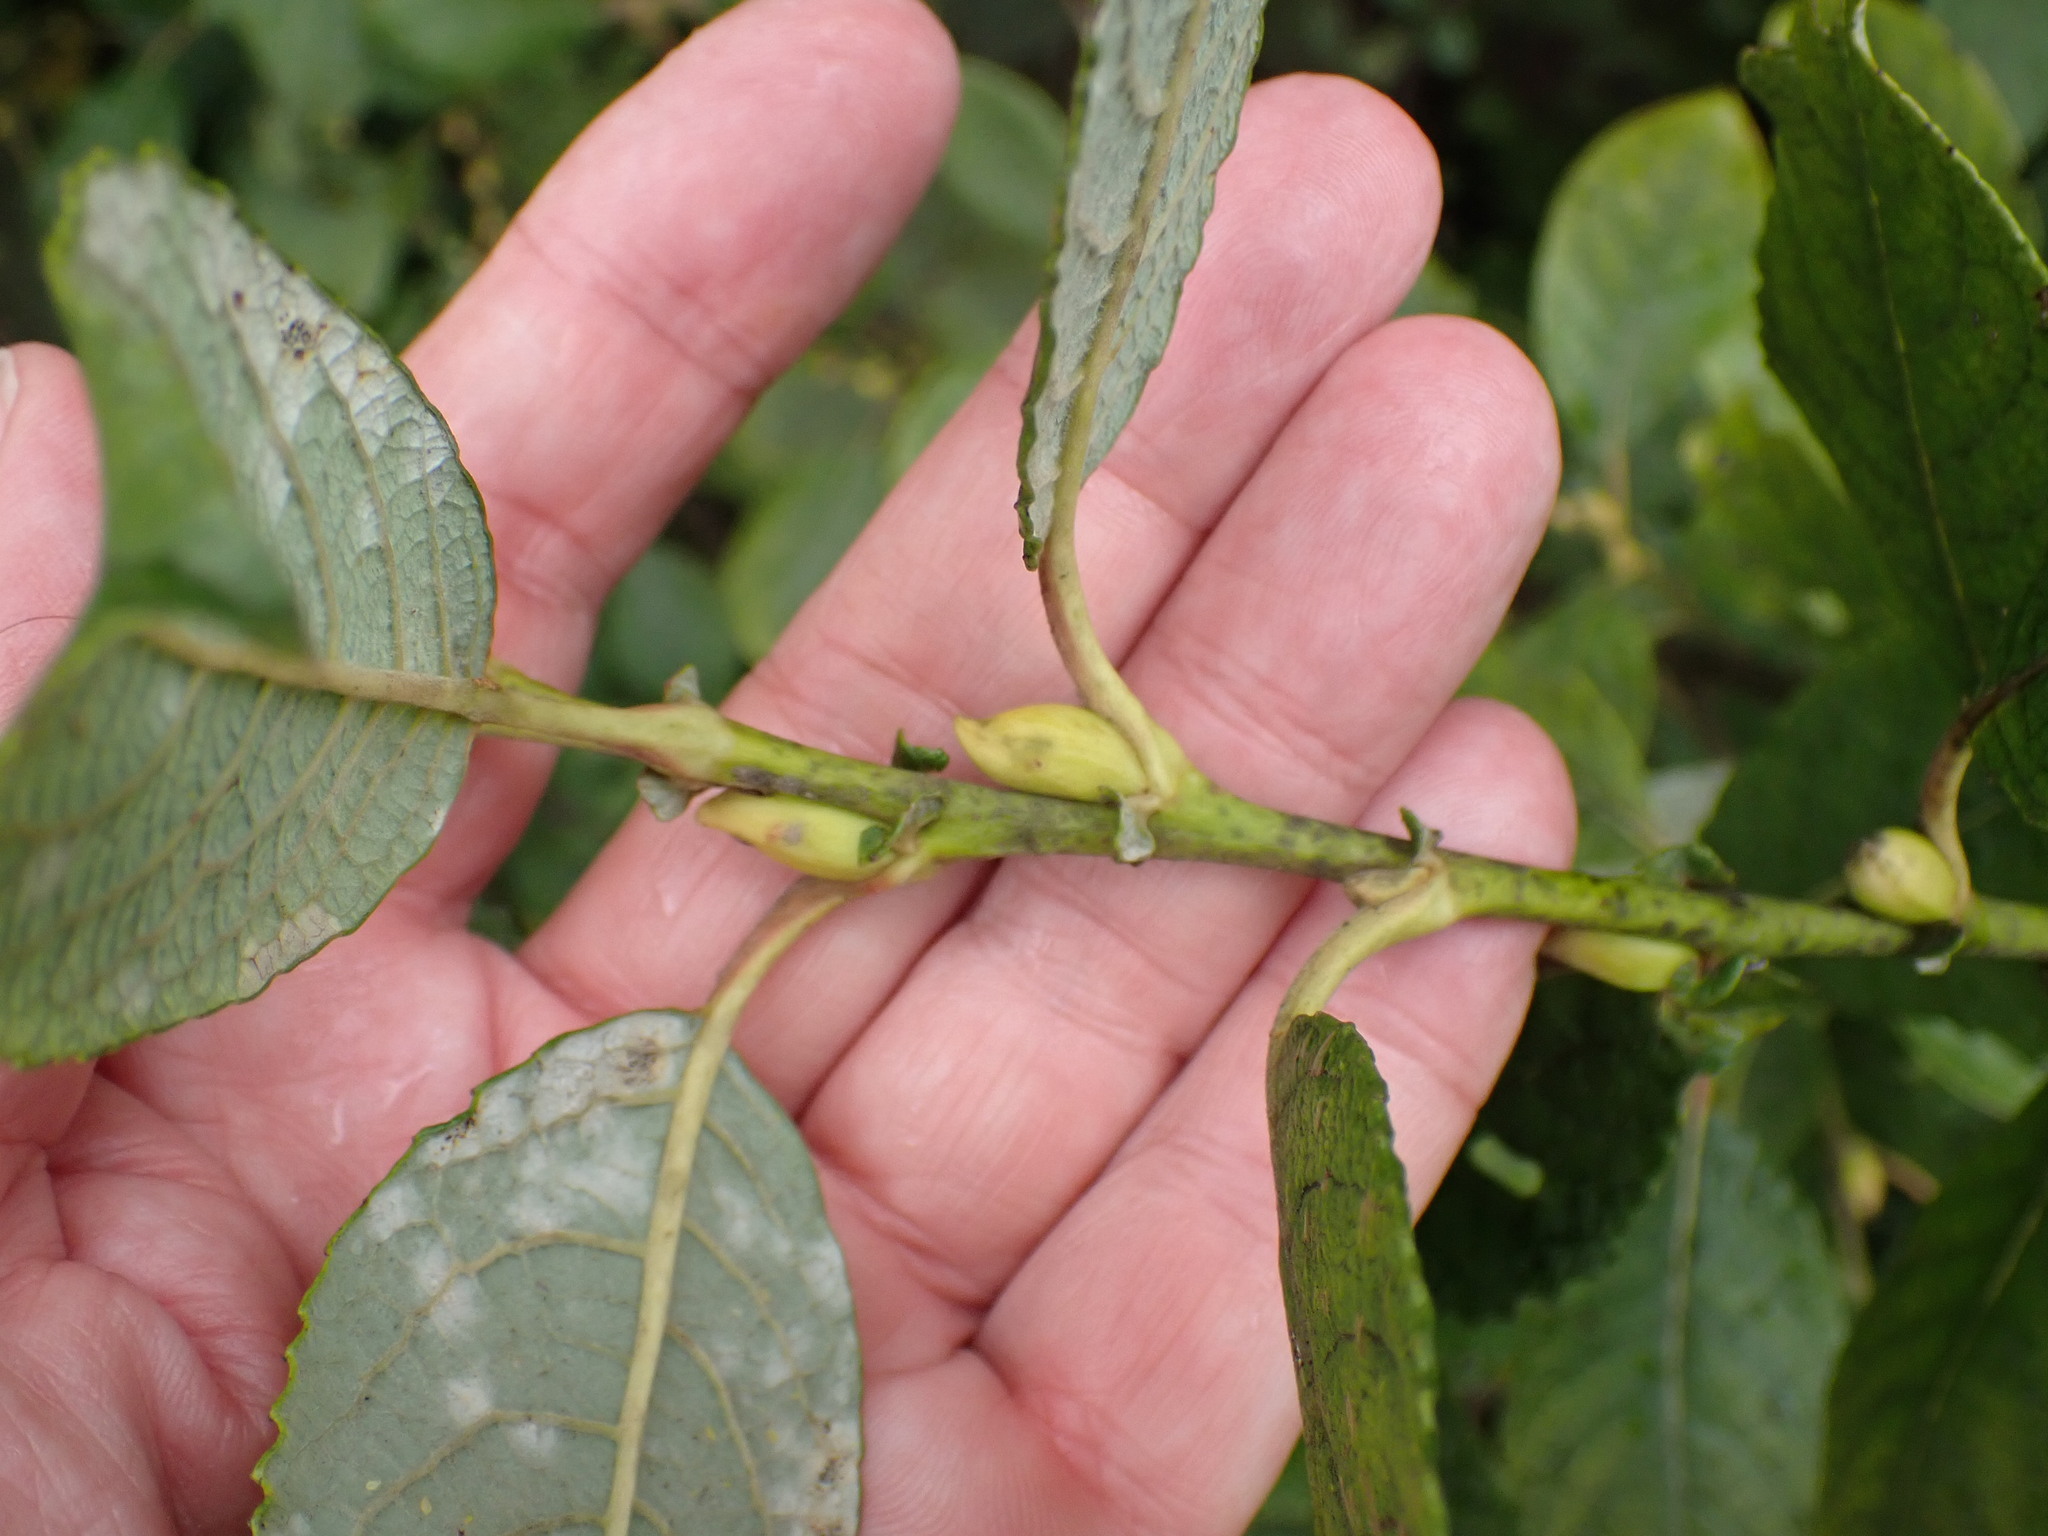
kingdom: Plantae
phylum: Tracheophyta
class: Magnoliopsida
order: Malpighiales
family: Salicaceae
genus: Salix
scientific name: Salix caprea
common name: Goat willow
